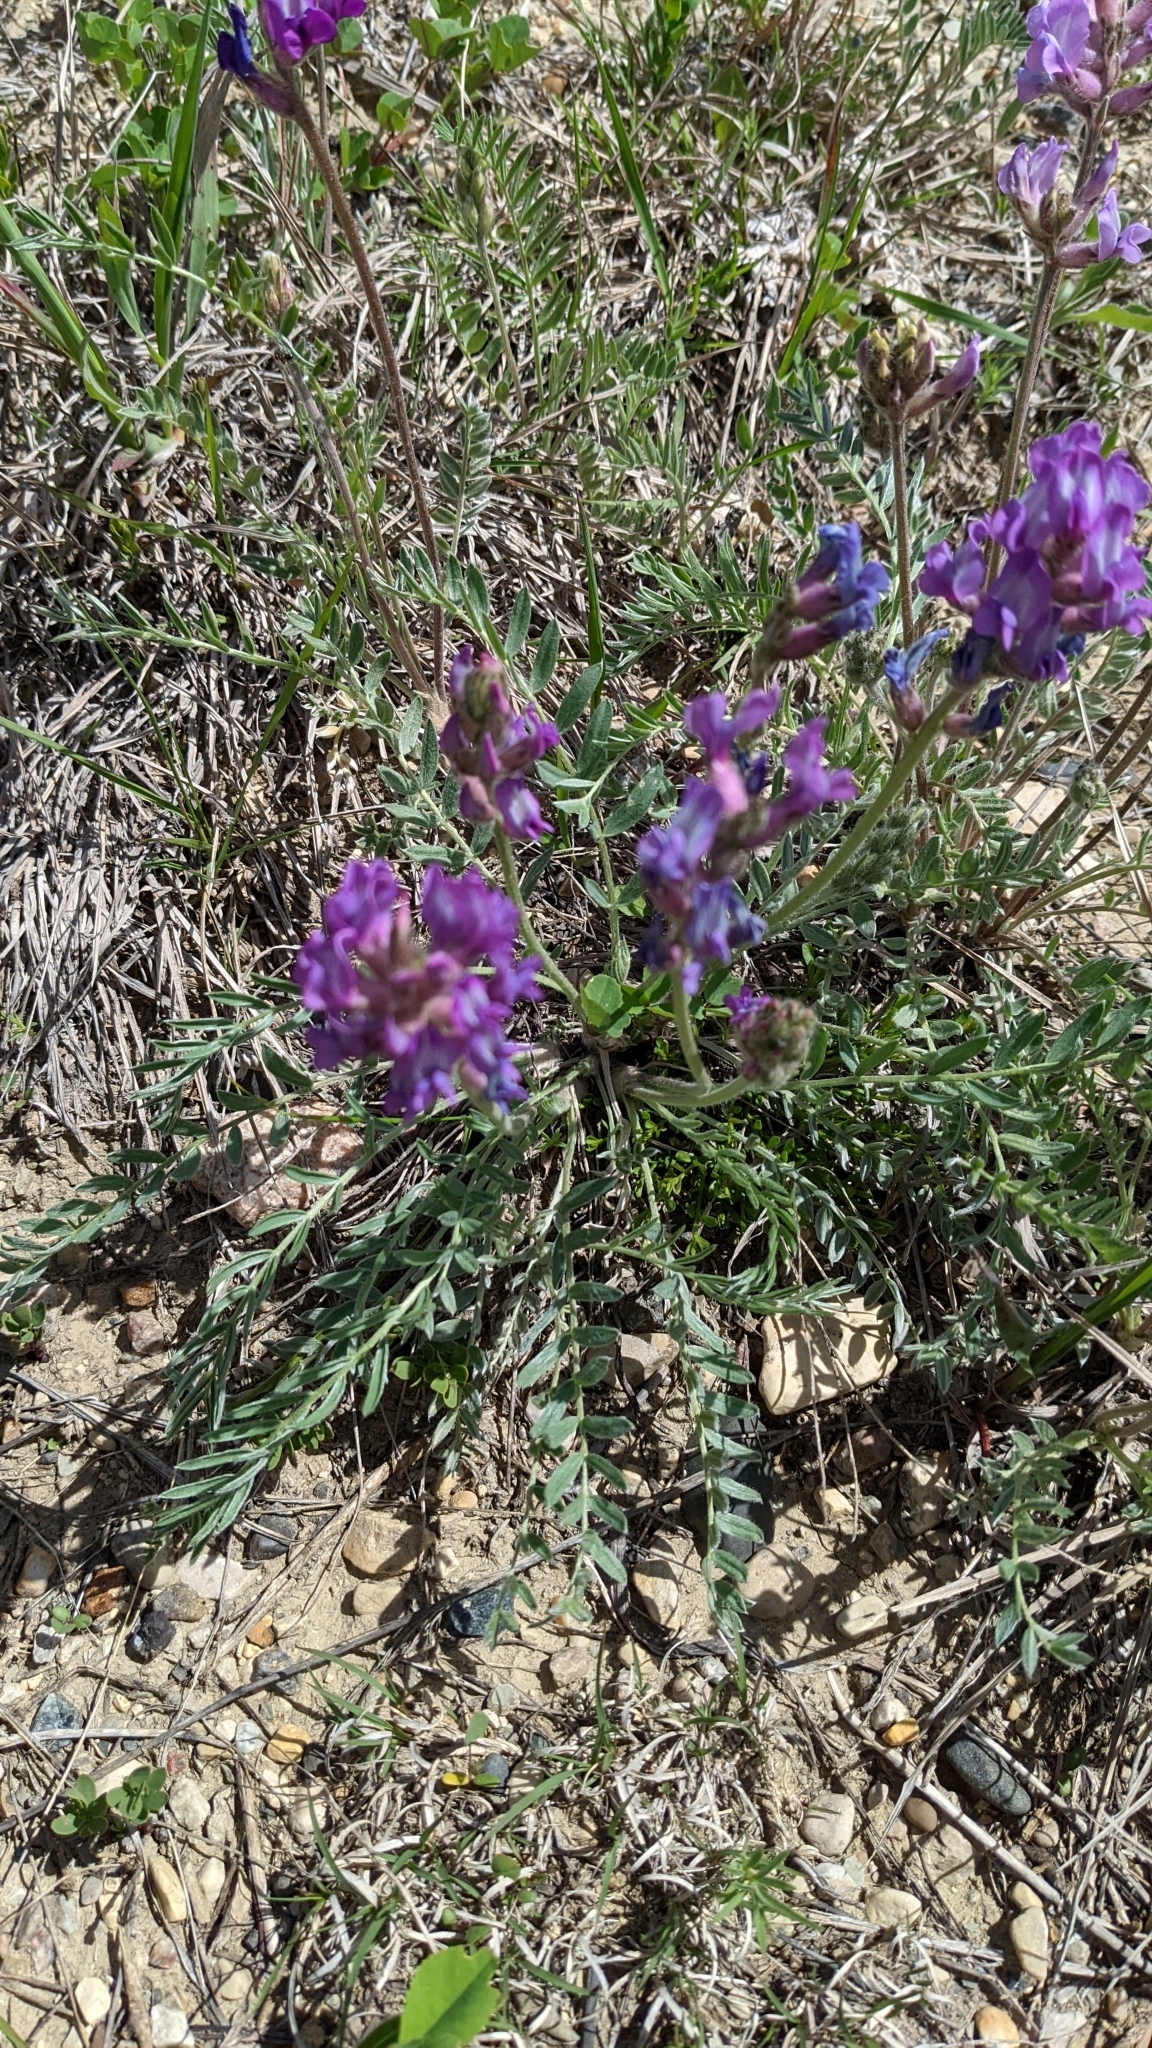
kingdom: Plantae
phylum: Tracheophyta
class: Magnoliopsida
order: Fabales
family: Fabaceae
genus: Oxytropis
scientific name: Oxytropis lambertii
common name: Purple locoweed
